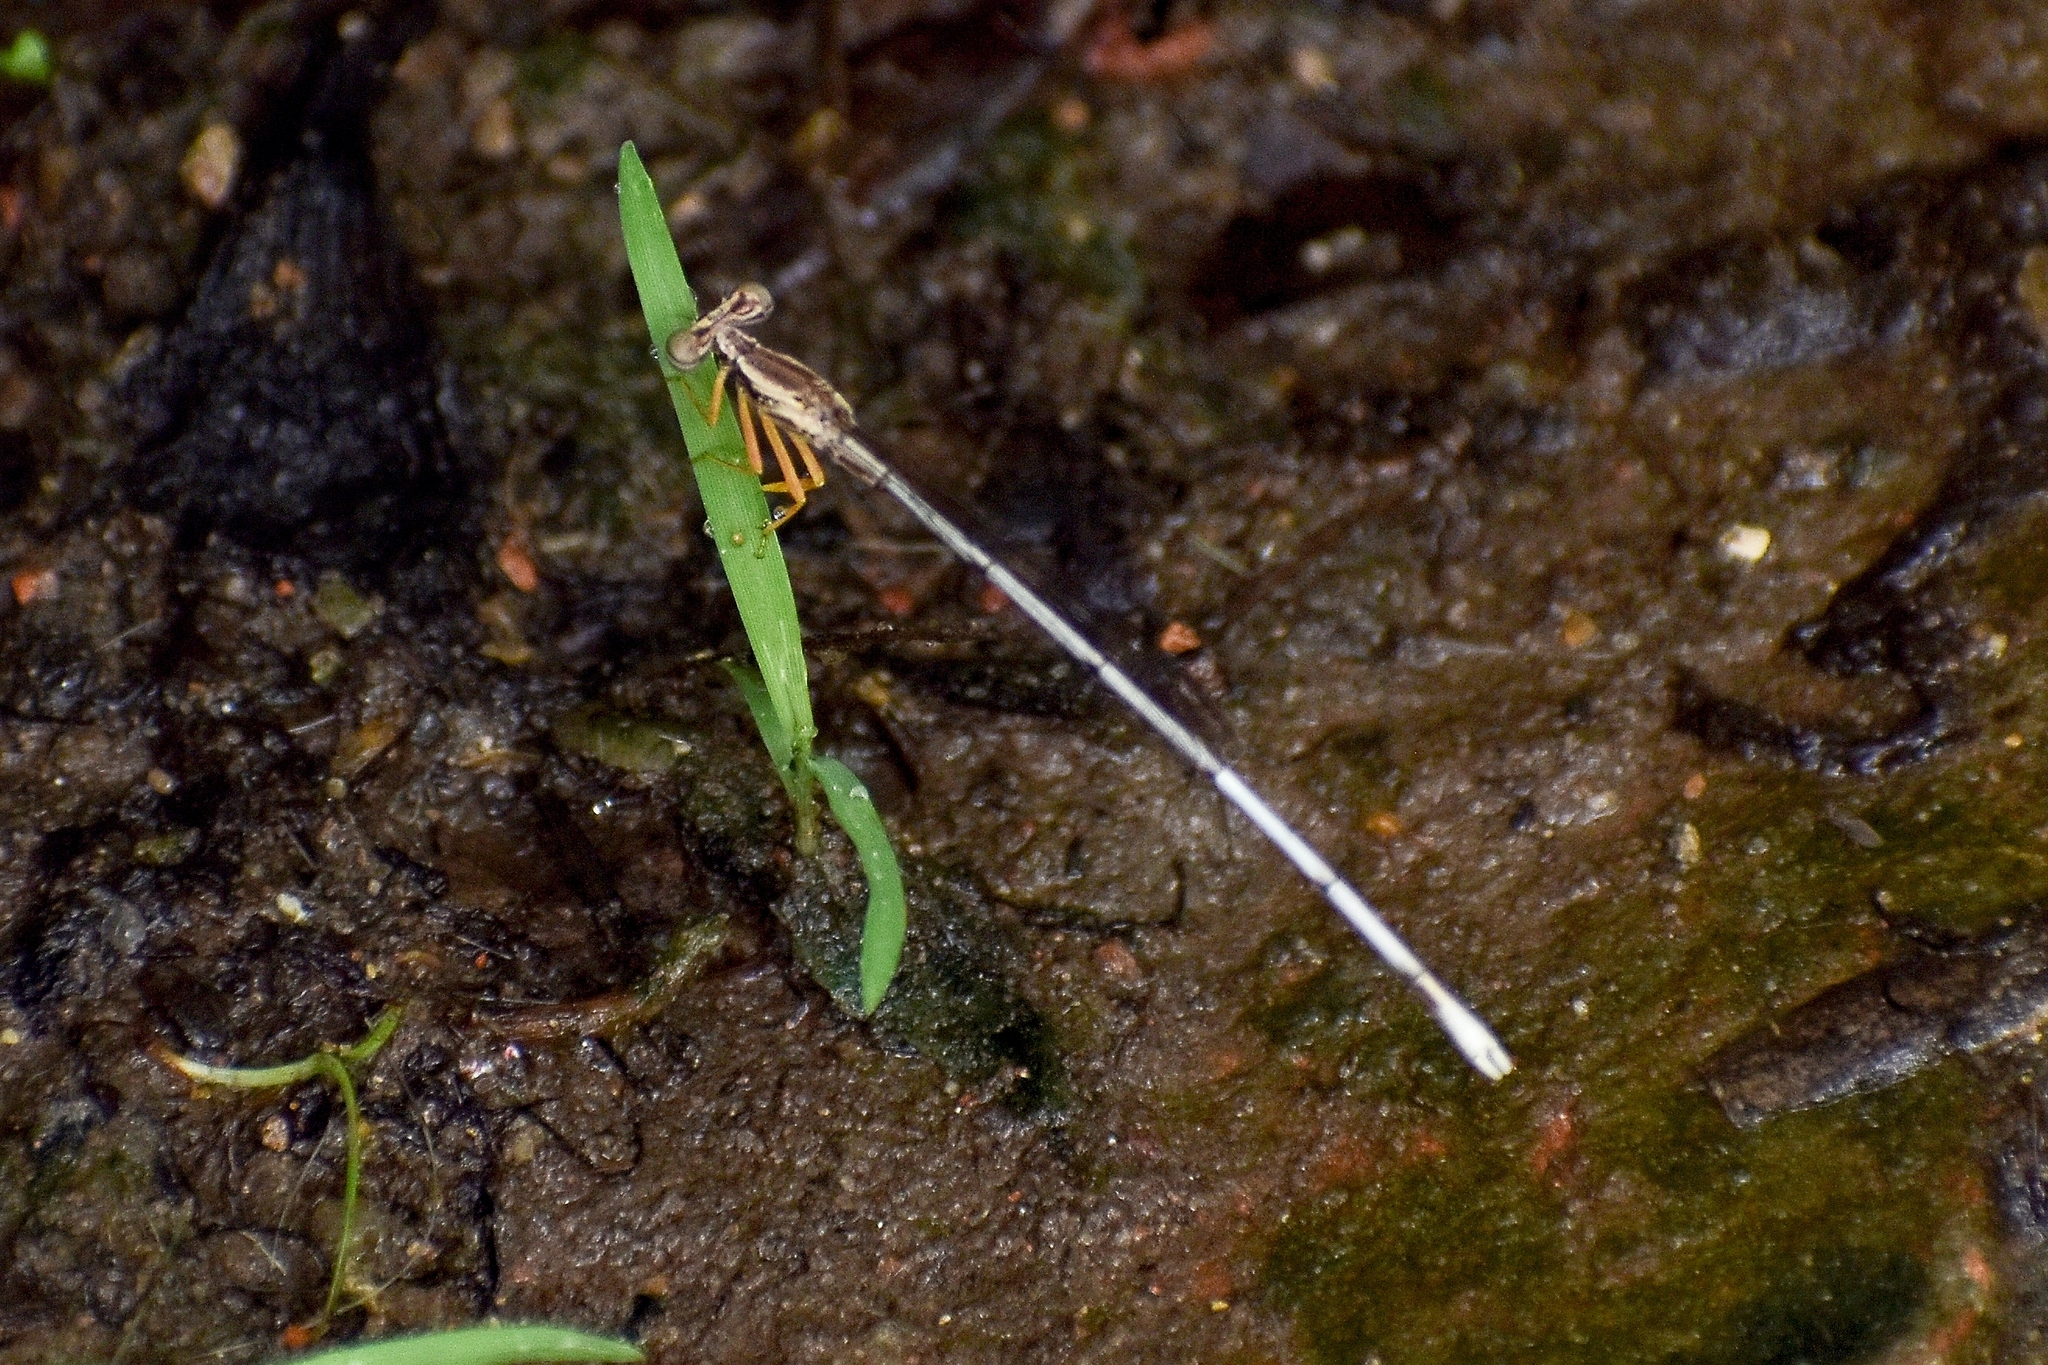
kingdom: Animalia
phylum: Arthropoda
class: Insecta
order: Odonata
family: Platycnemididae
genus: Copera
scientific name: Copera marginipes
